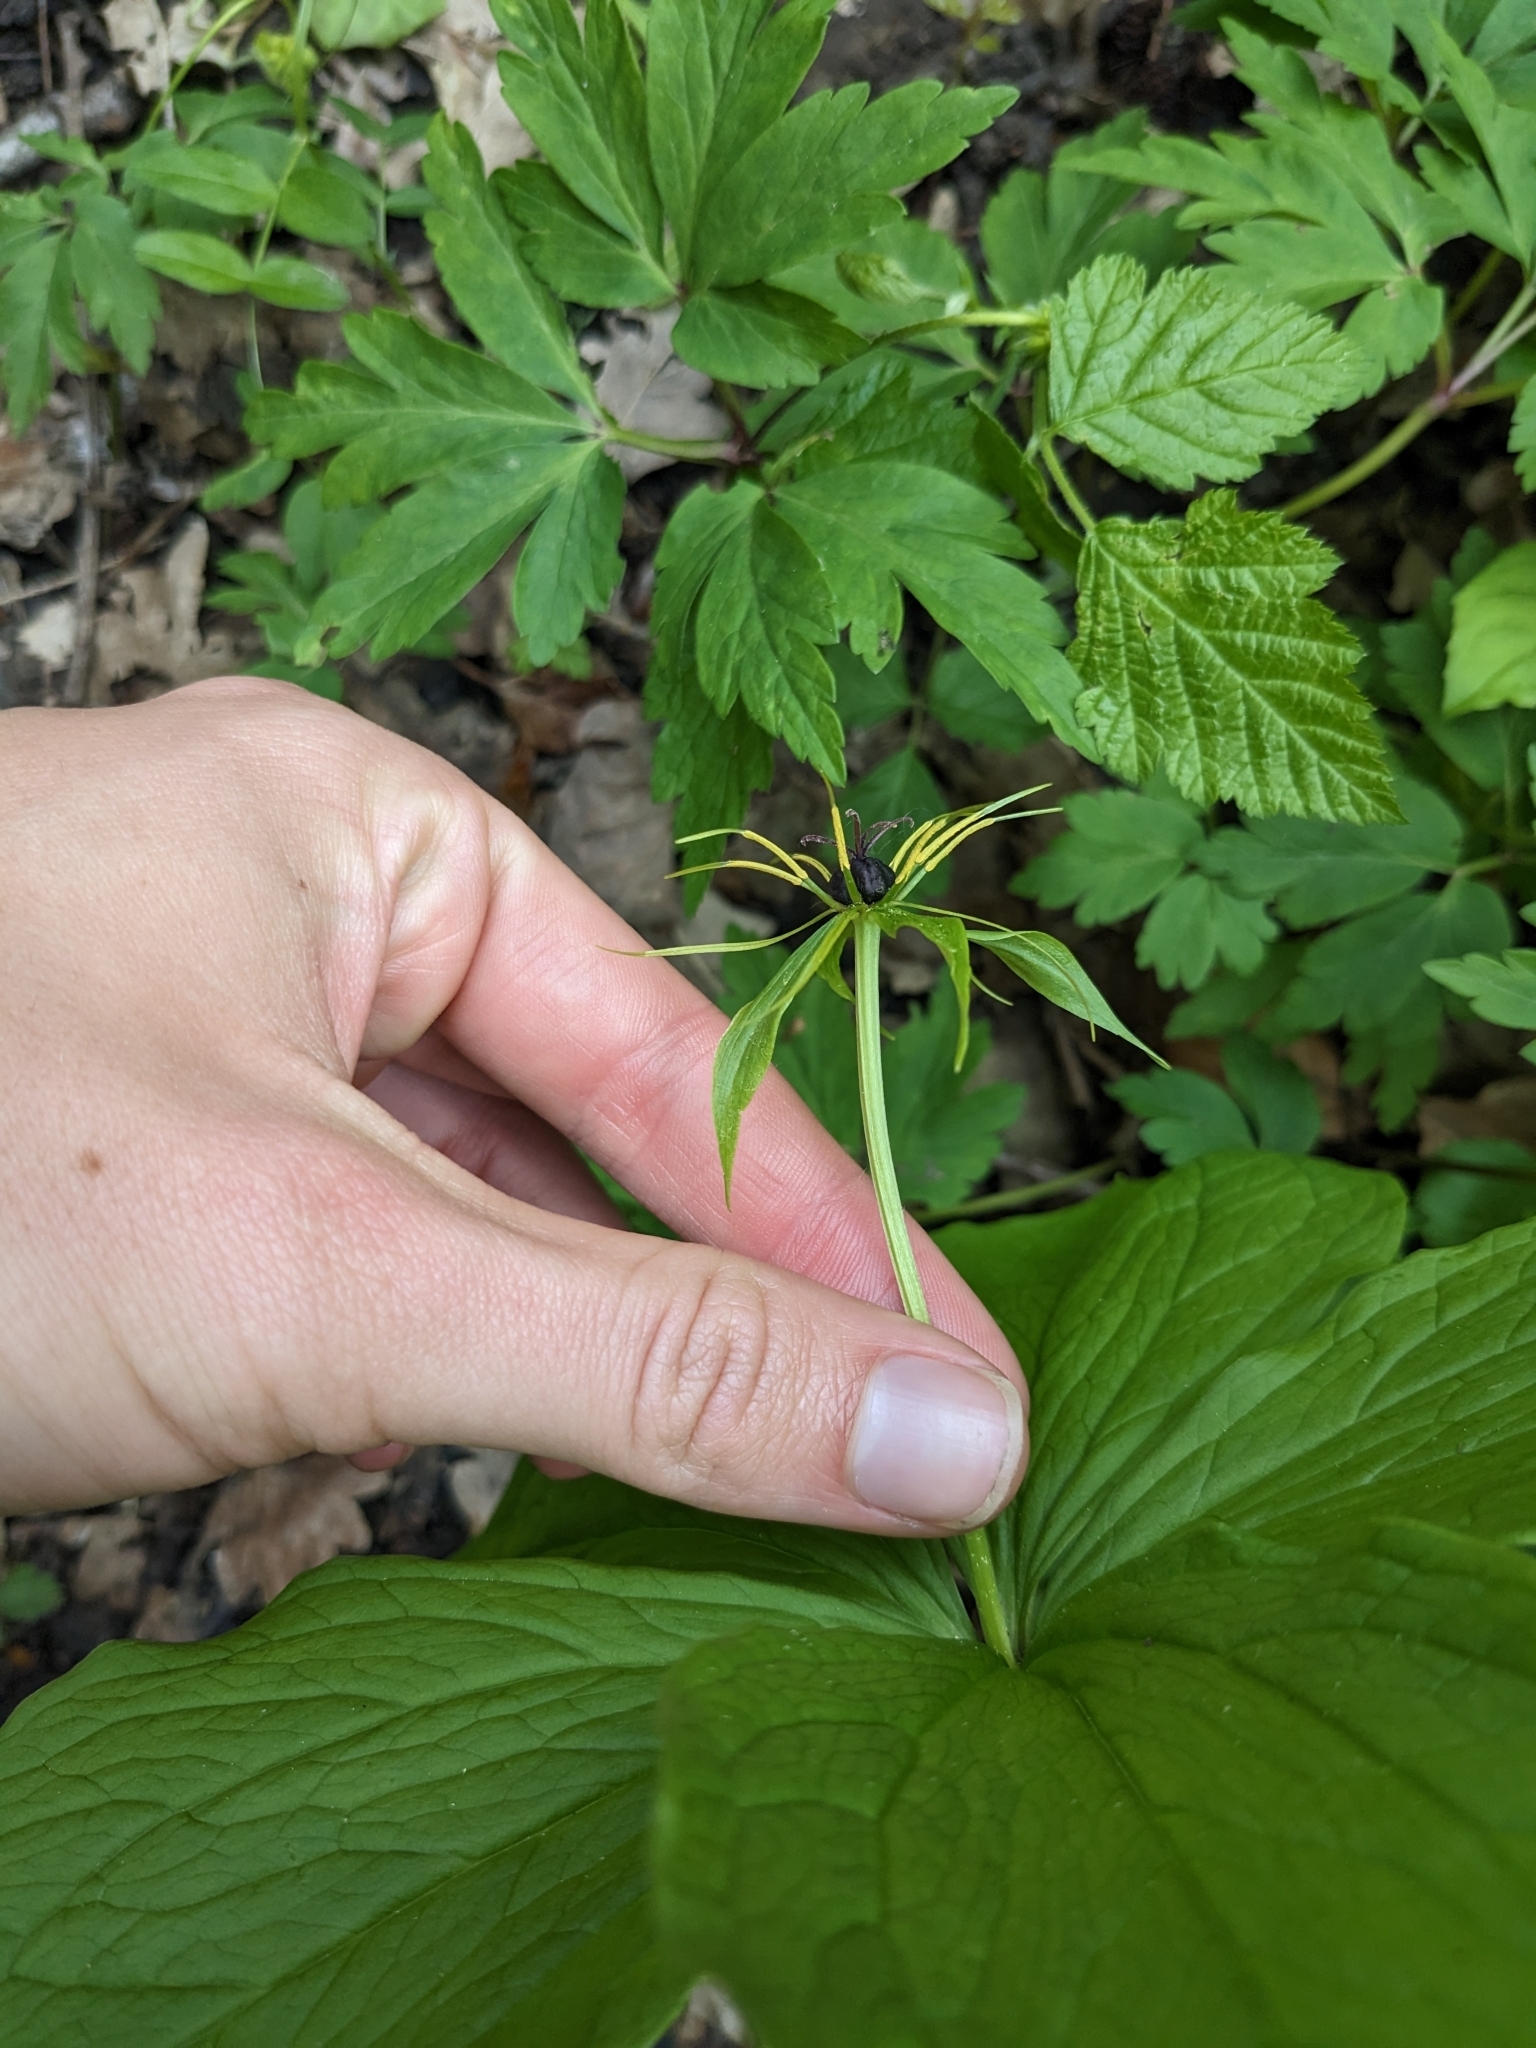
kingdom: Plantae
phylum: Tracheophyta
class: Liliopsida
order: Liliales
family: Melanthiaceae
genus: Paris
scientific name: Paris quadrifolia
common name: Herb-paris
